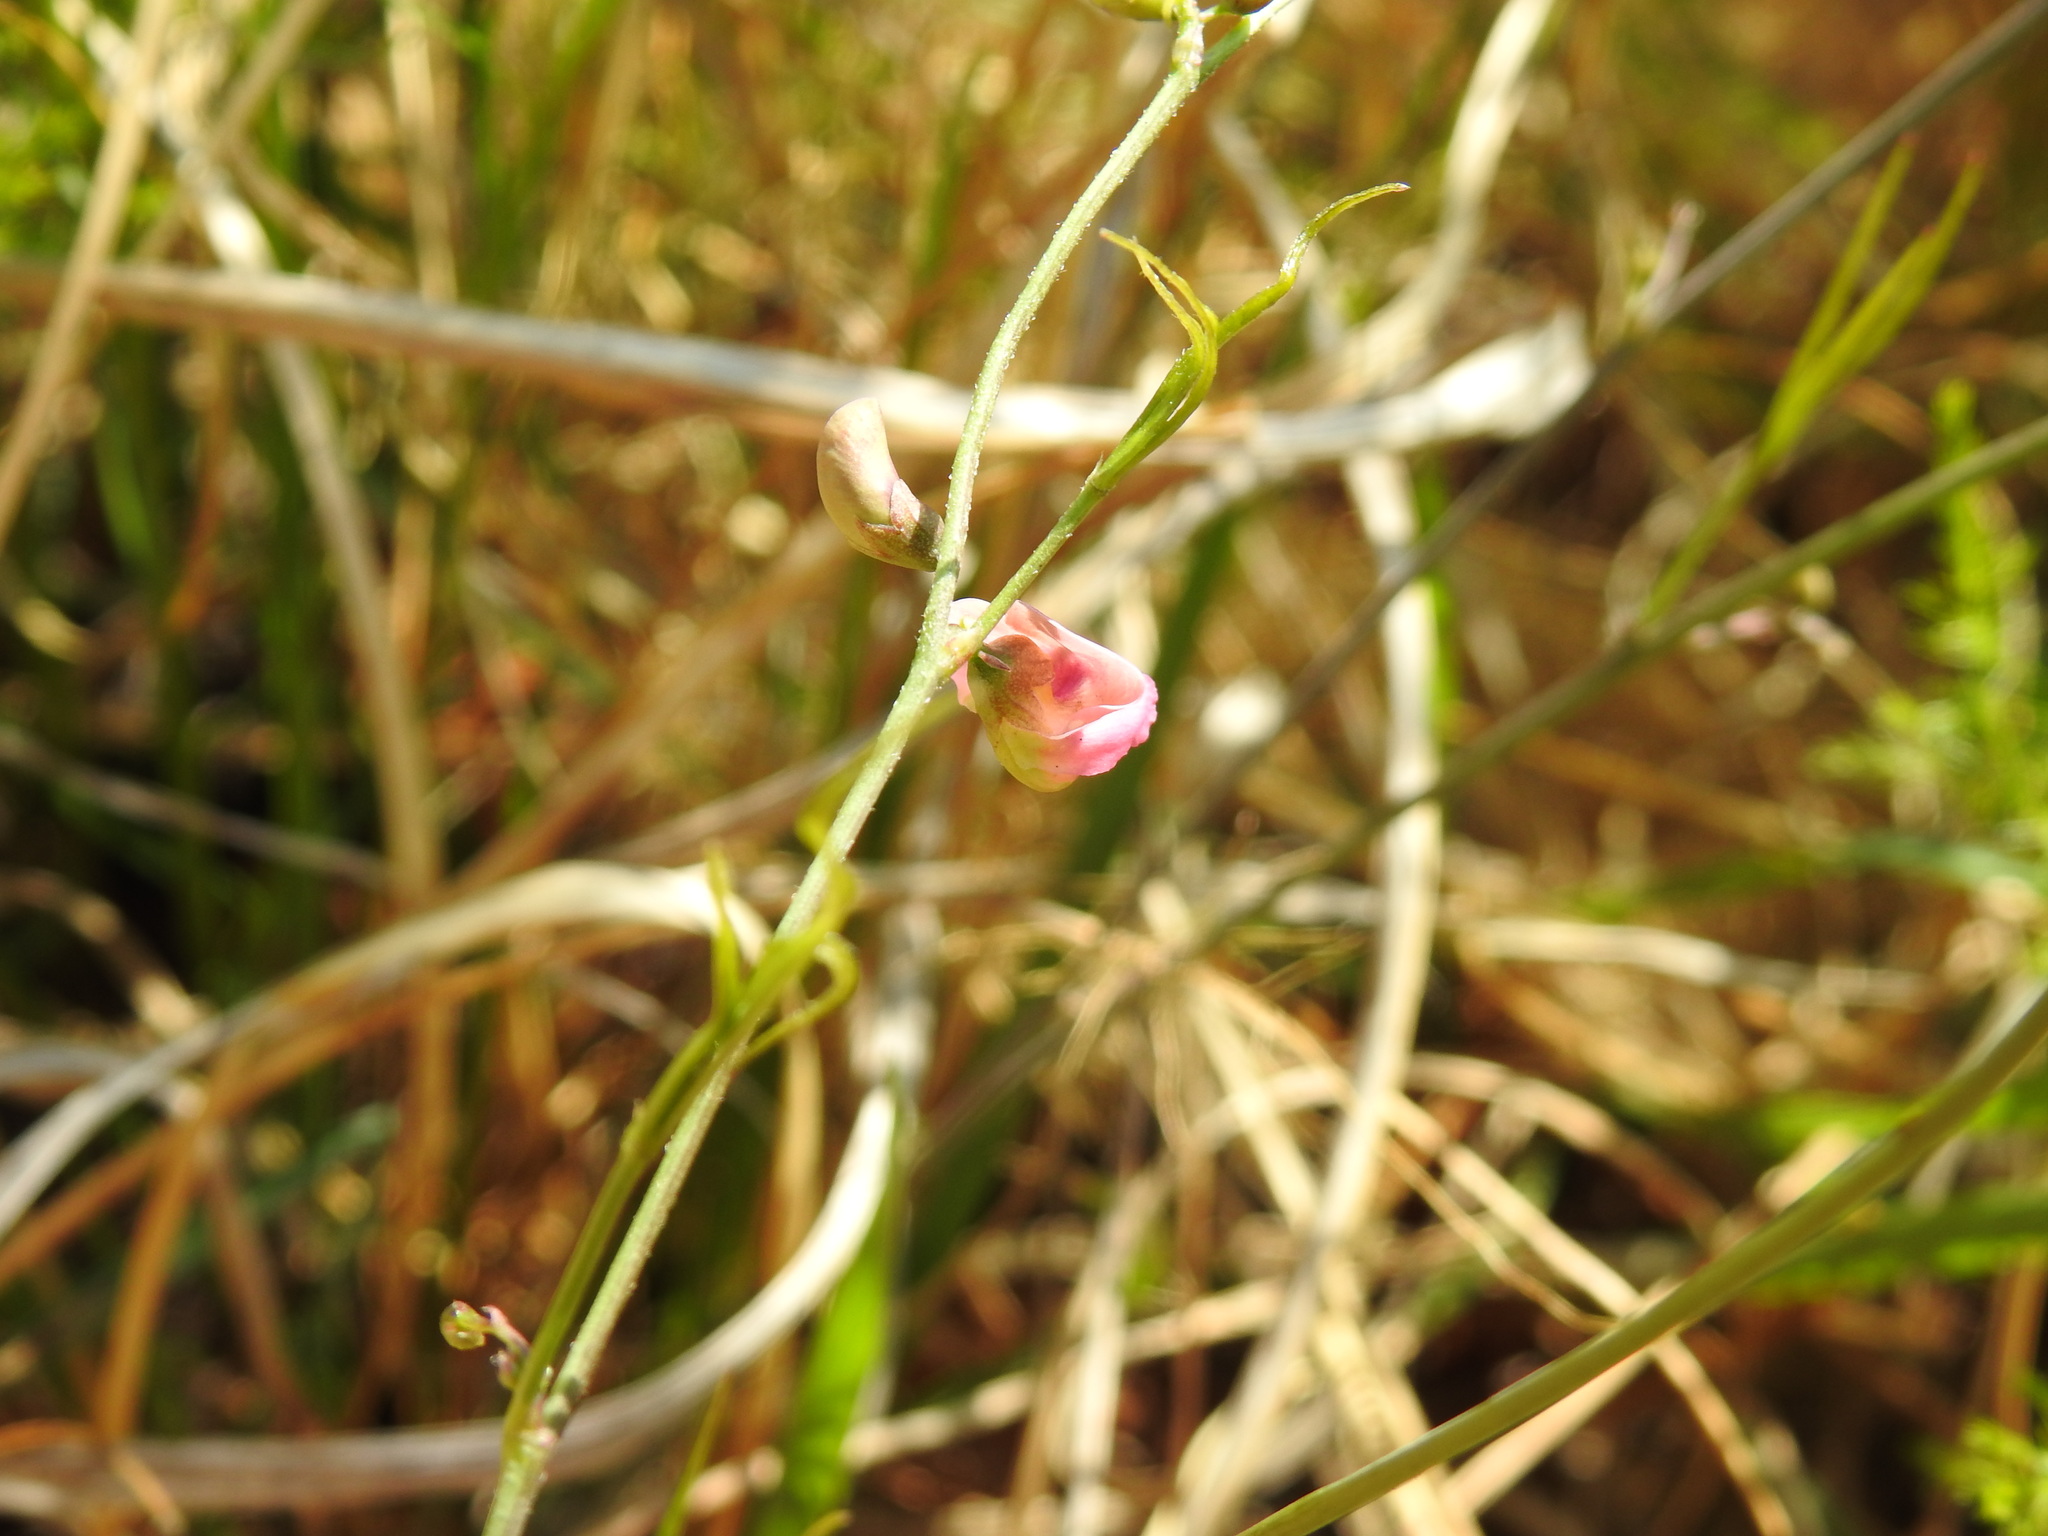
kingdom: Plantae
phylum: Tracheophyta
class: Magnoliopsida
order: Fabales
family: Fabaceae
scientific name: Fabaceae
